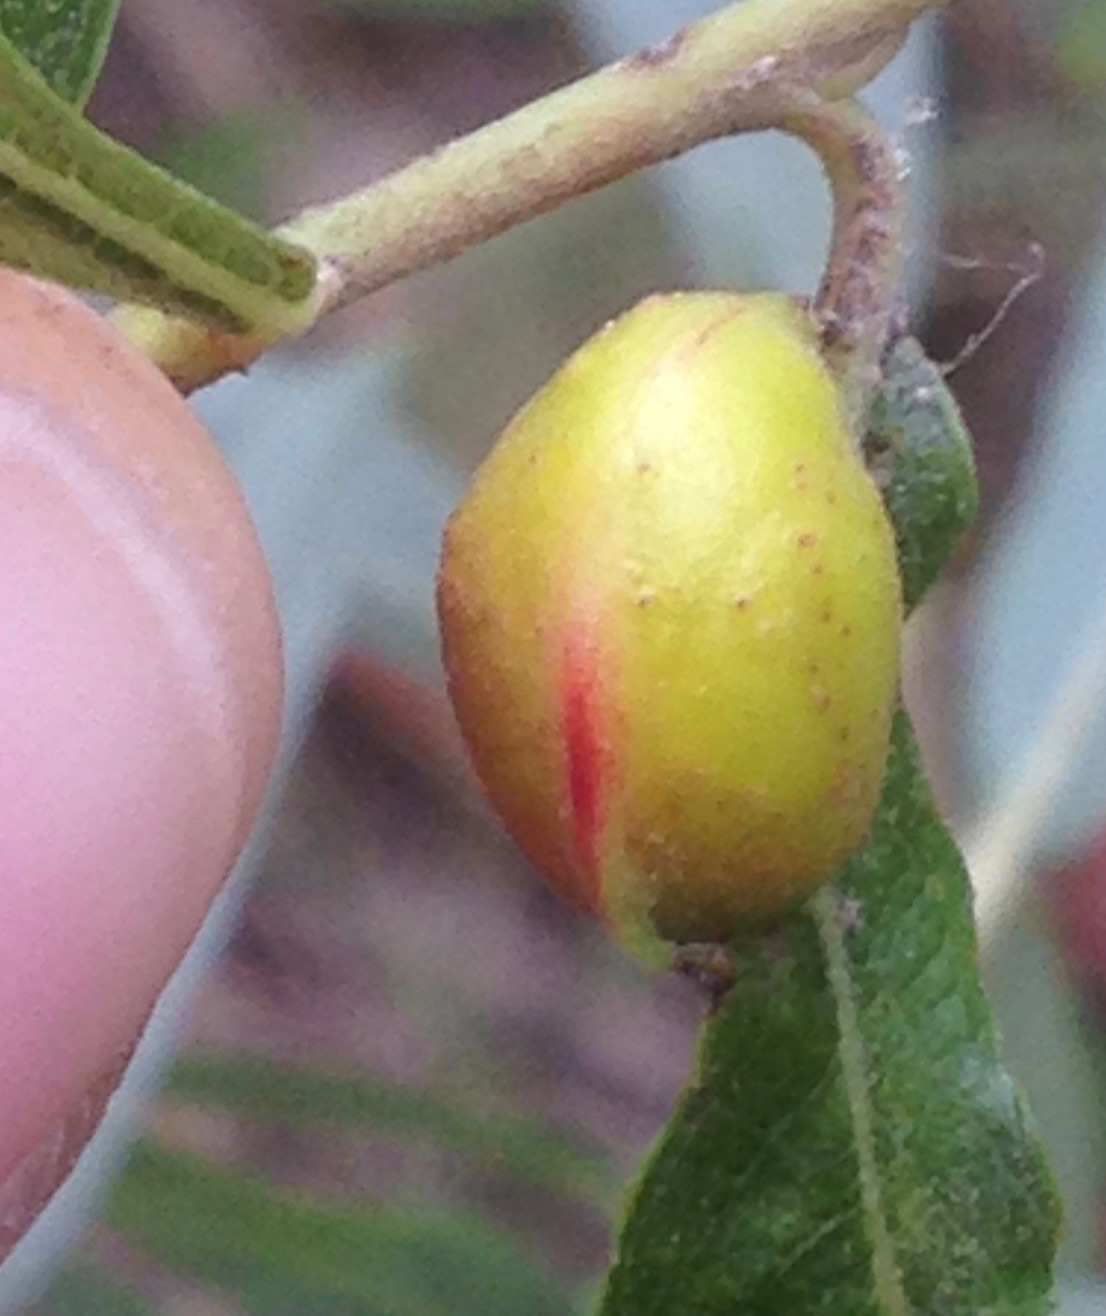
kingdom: Animalia
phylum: Arthropoda
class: Insecta
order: Hymenoptera
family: Tenthredinidae
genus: Euura
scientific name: Euura
